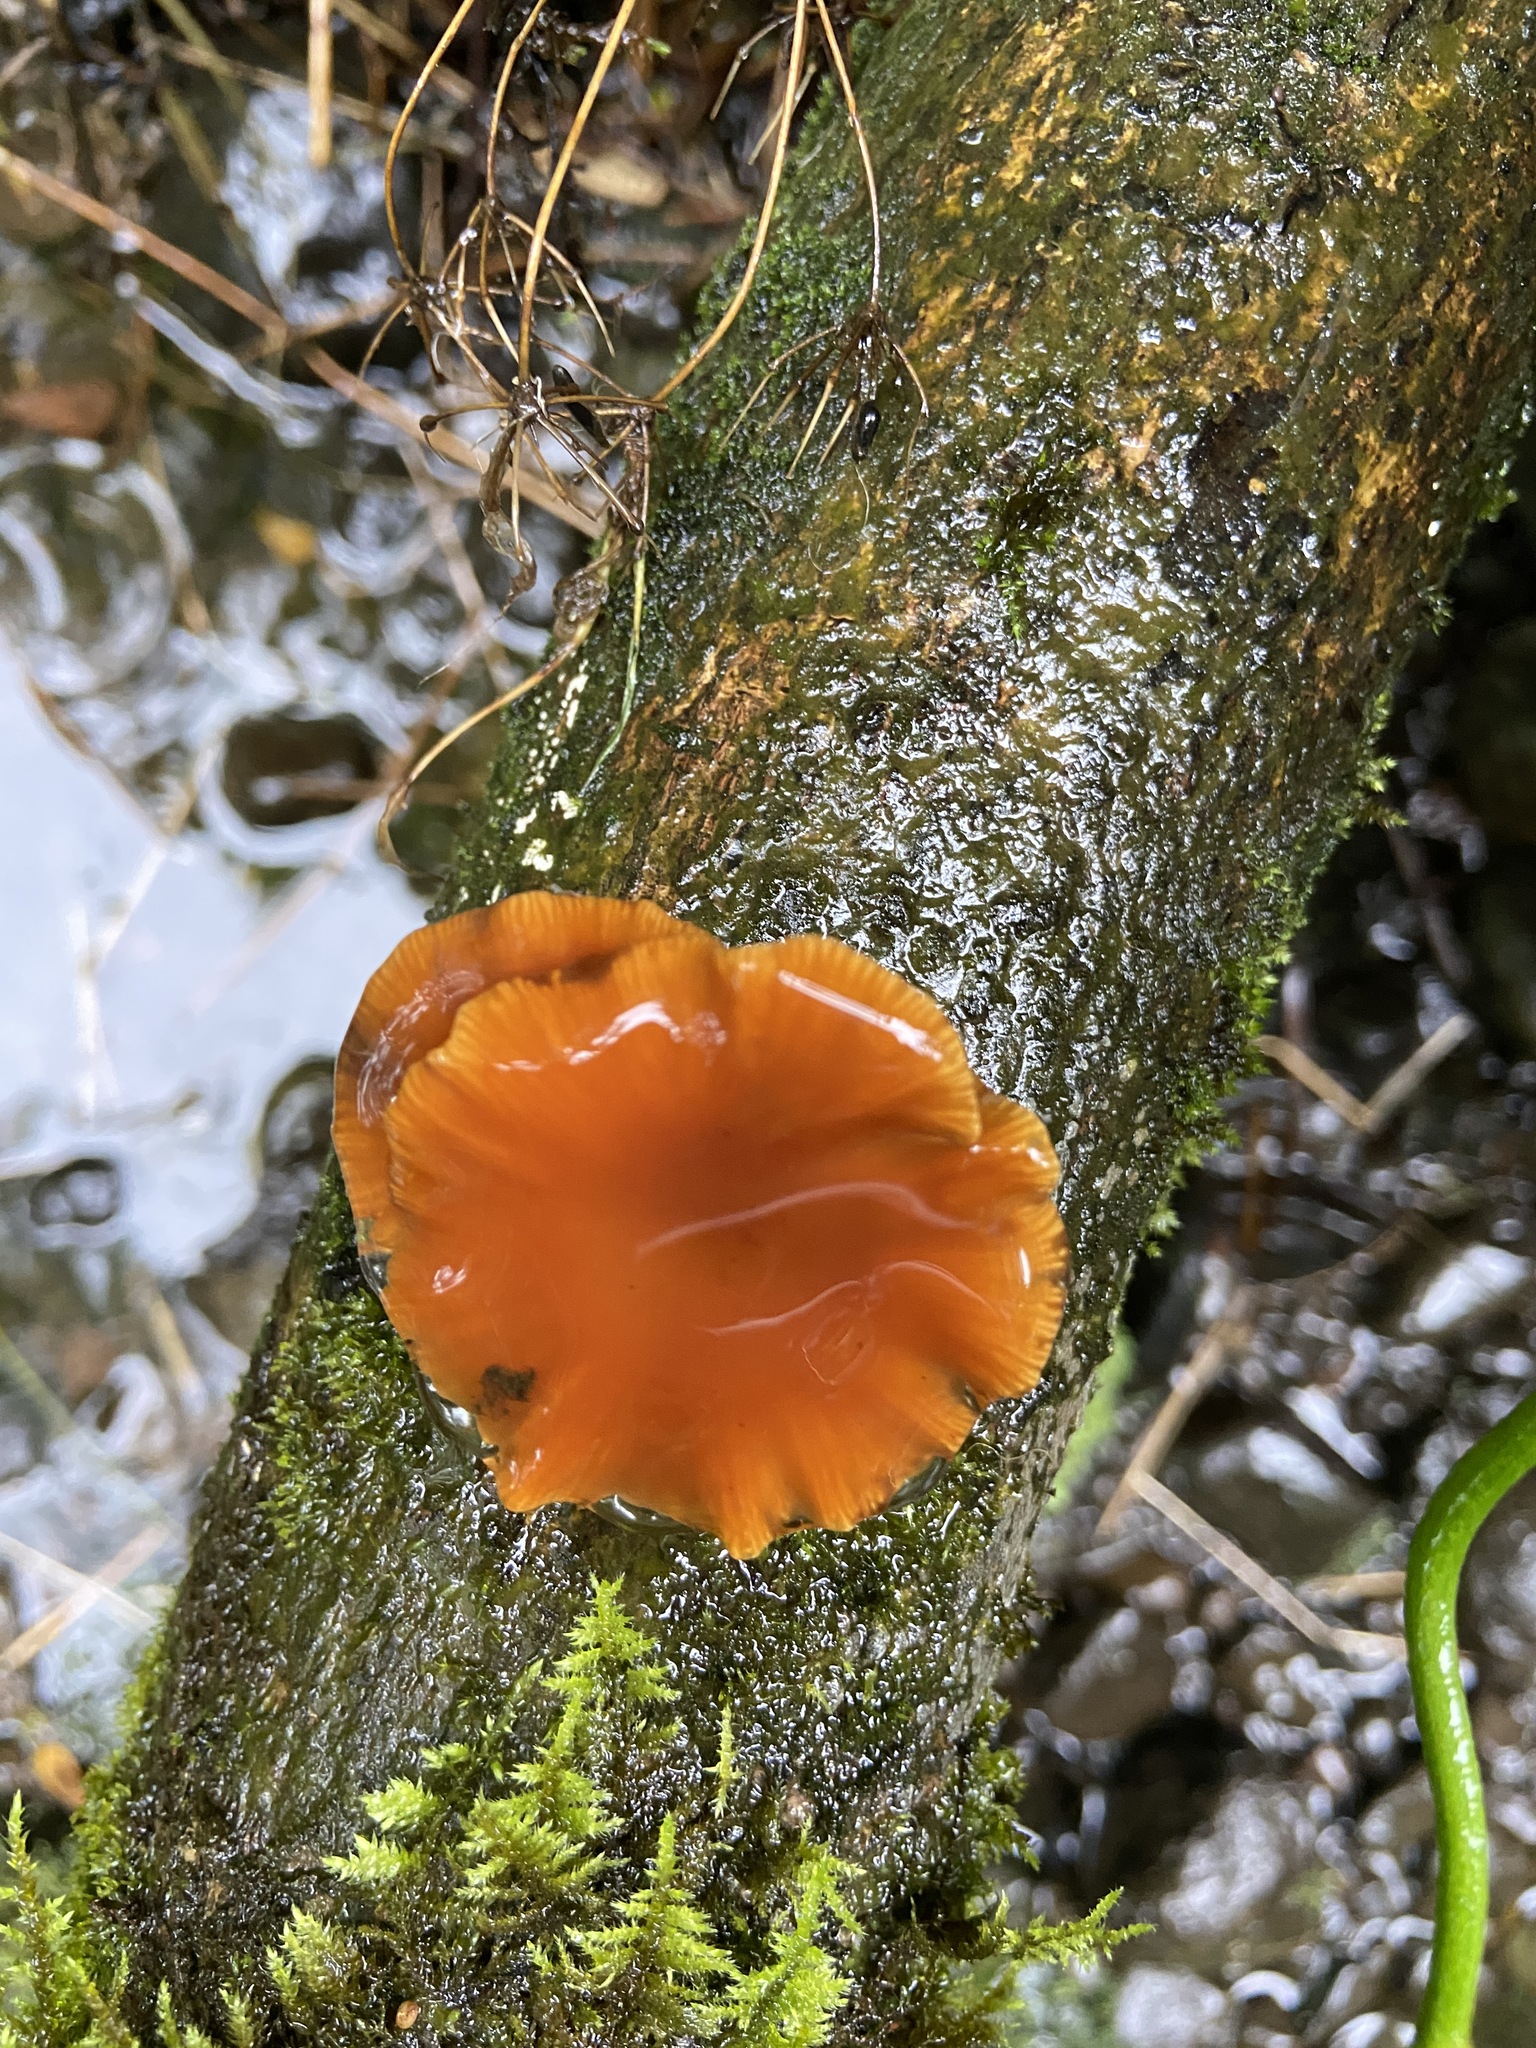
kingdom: Fungi
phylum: Basidiomycota
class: Agaricomycetes
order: Agaricales
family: Physalacriaceae
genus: Flammulina
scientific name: Flammulina
